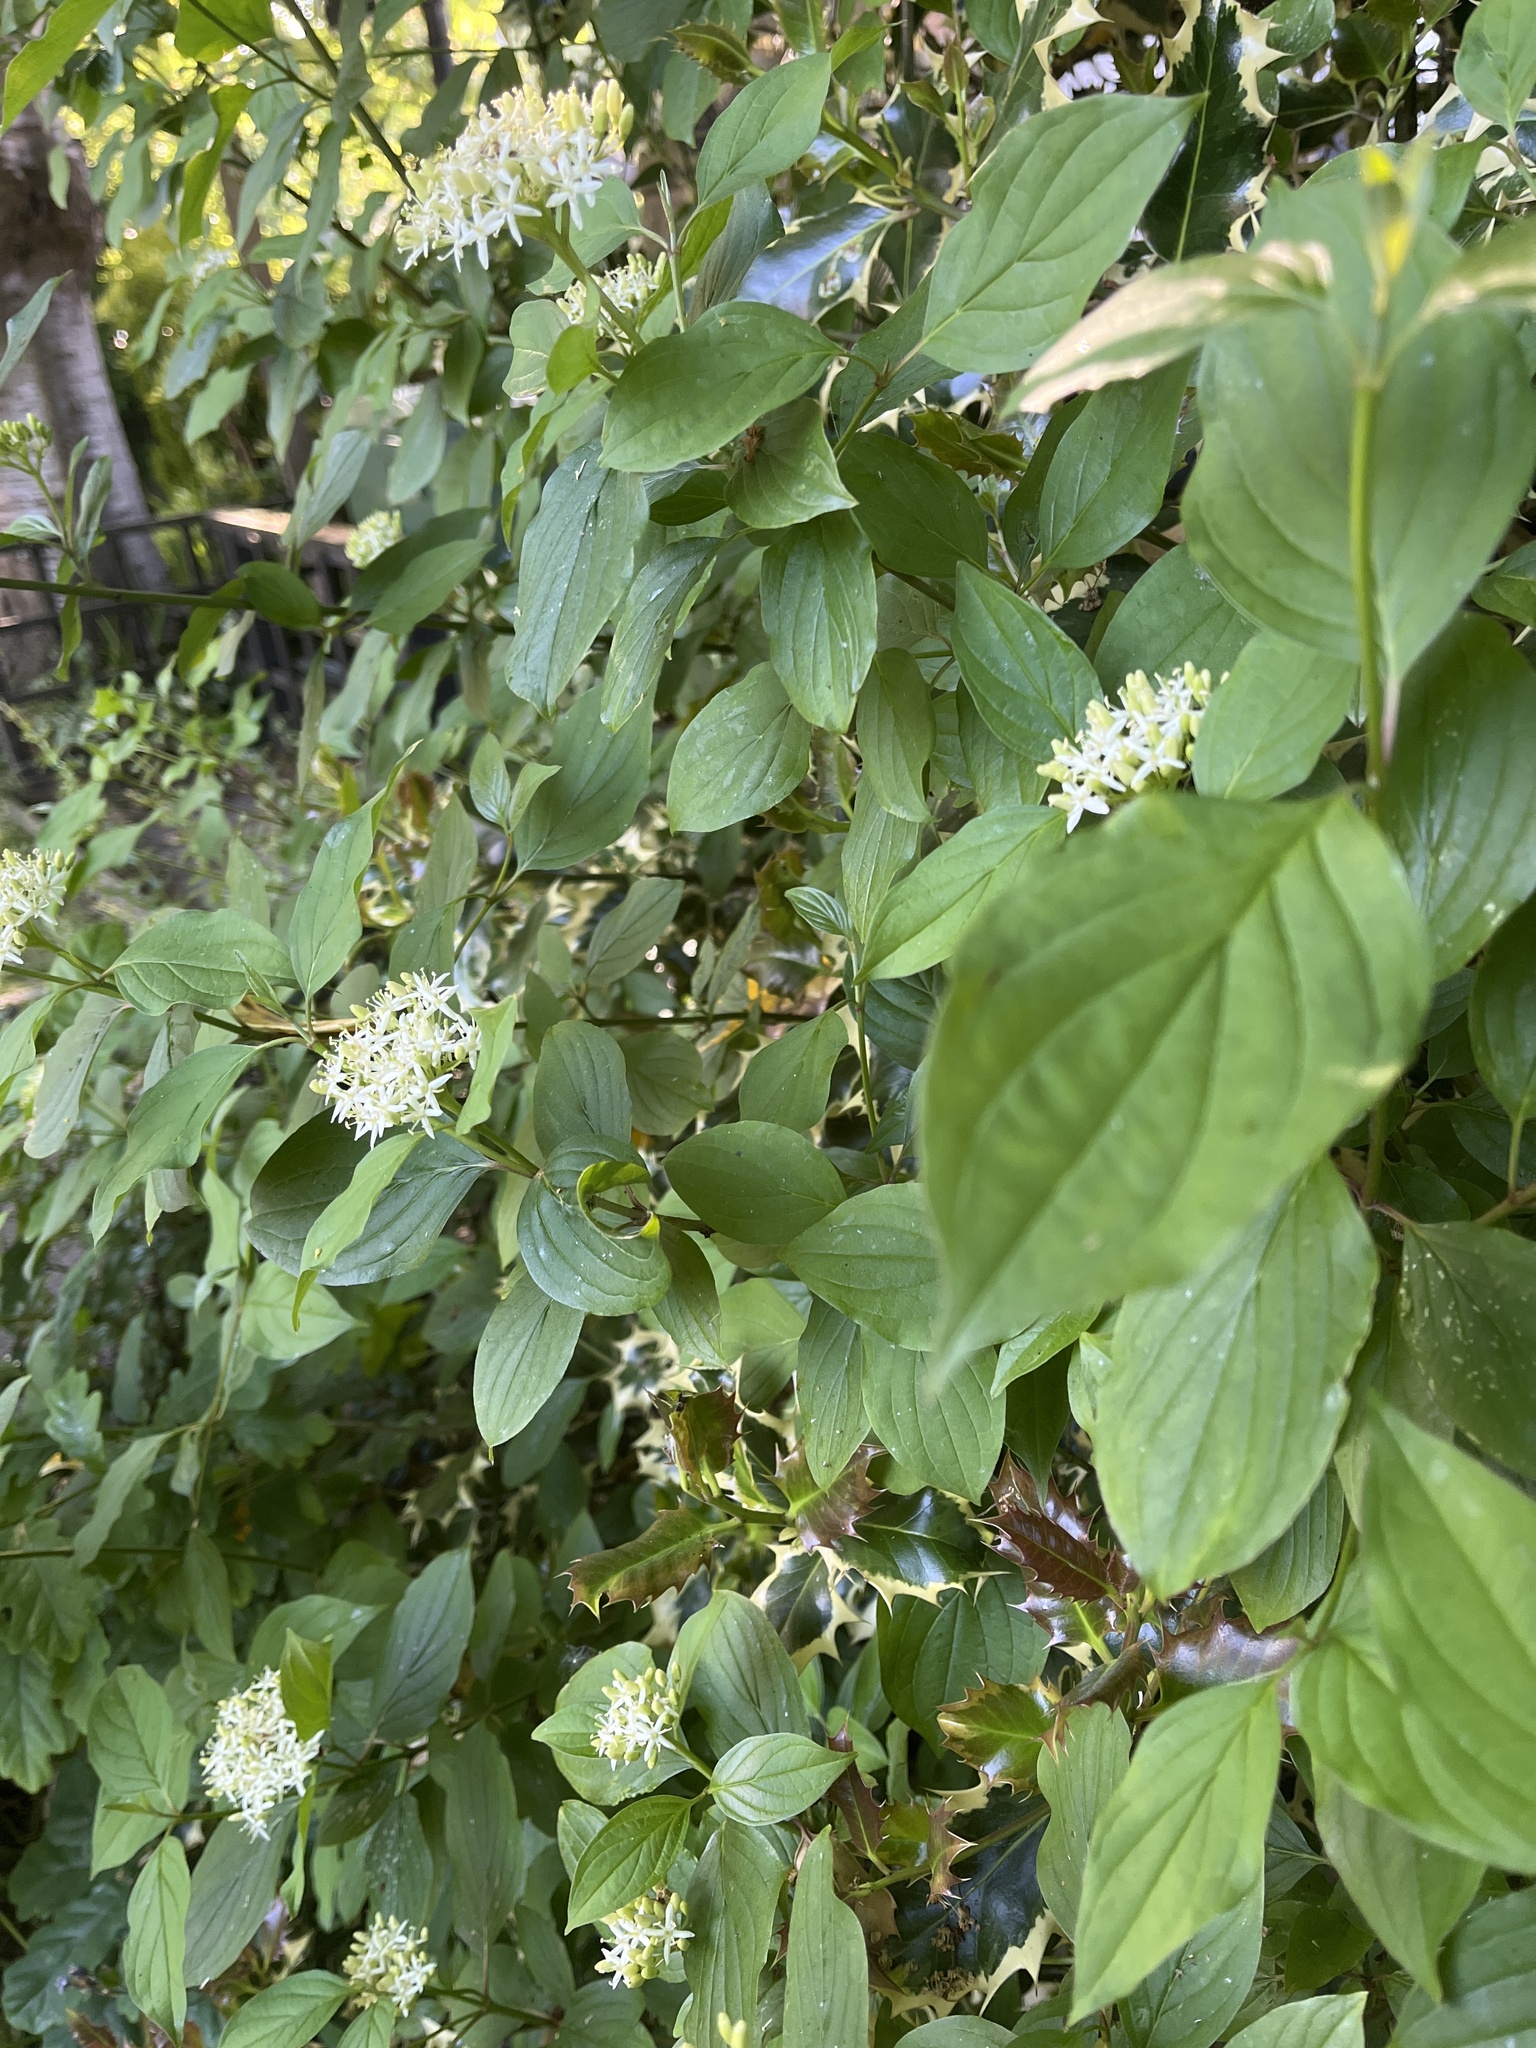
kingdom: Plantae
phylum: Tracheophyta
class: Magnoliopsida
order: Cornales
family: Cornaceae
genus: Cornus
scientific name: Cornus sanguinea
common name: Dogwood
